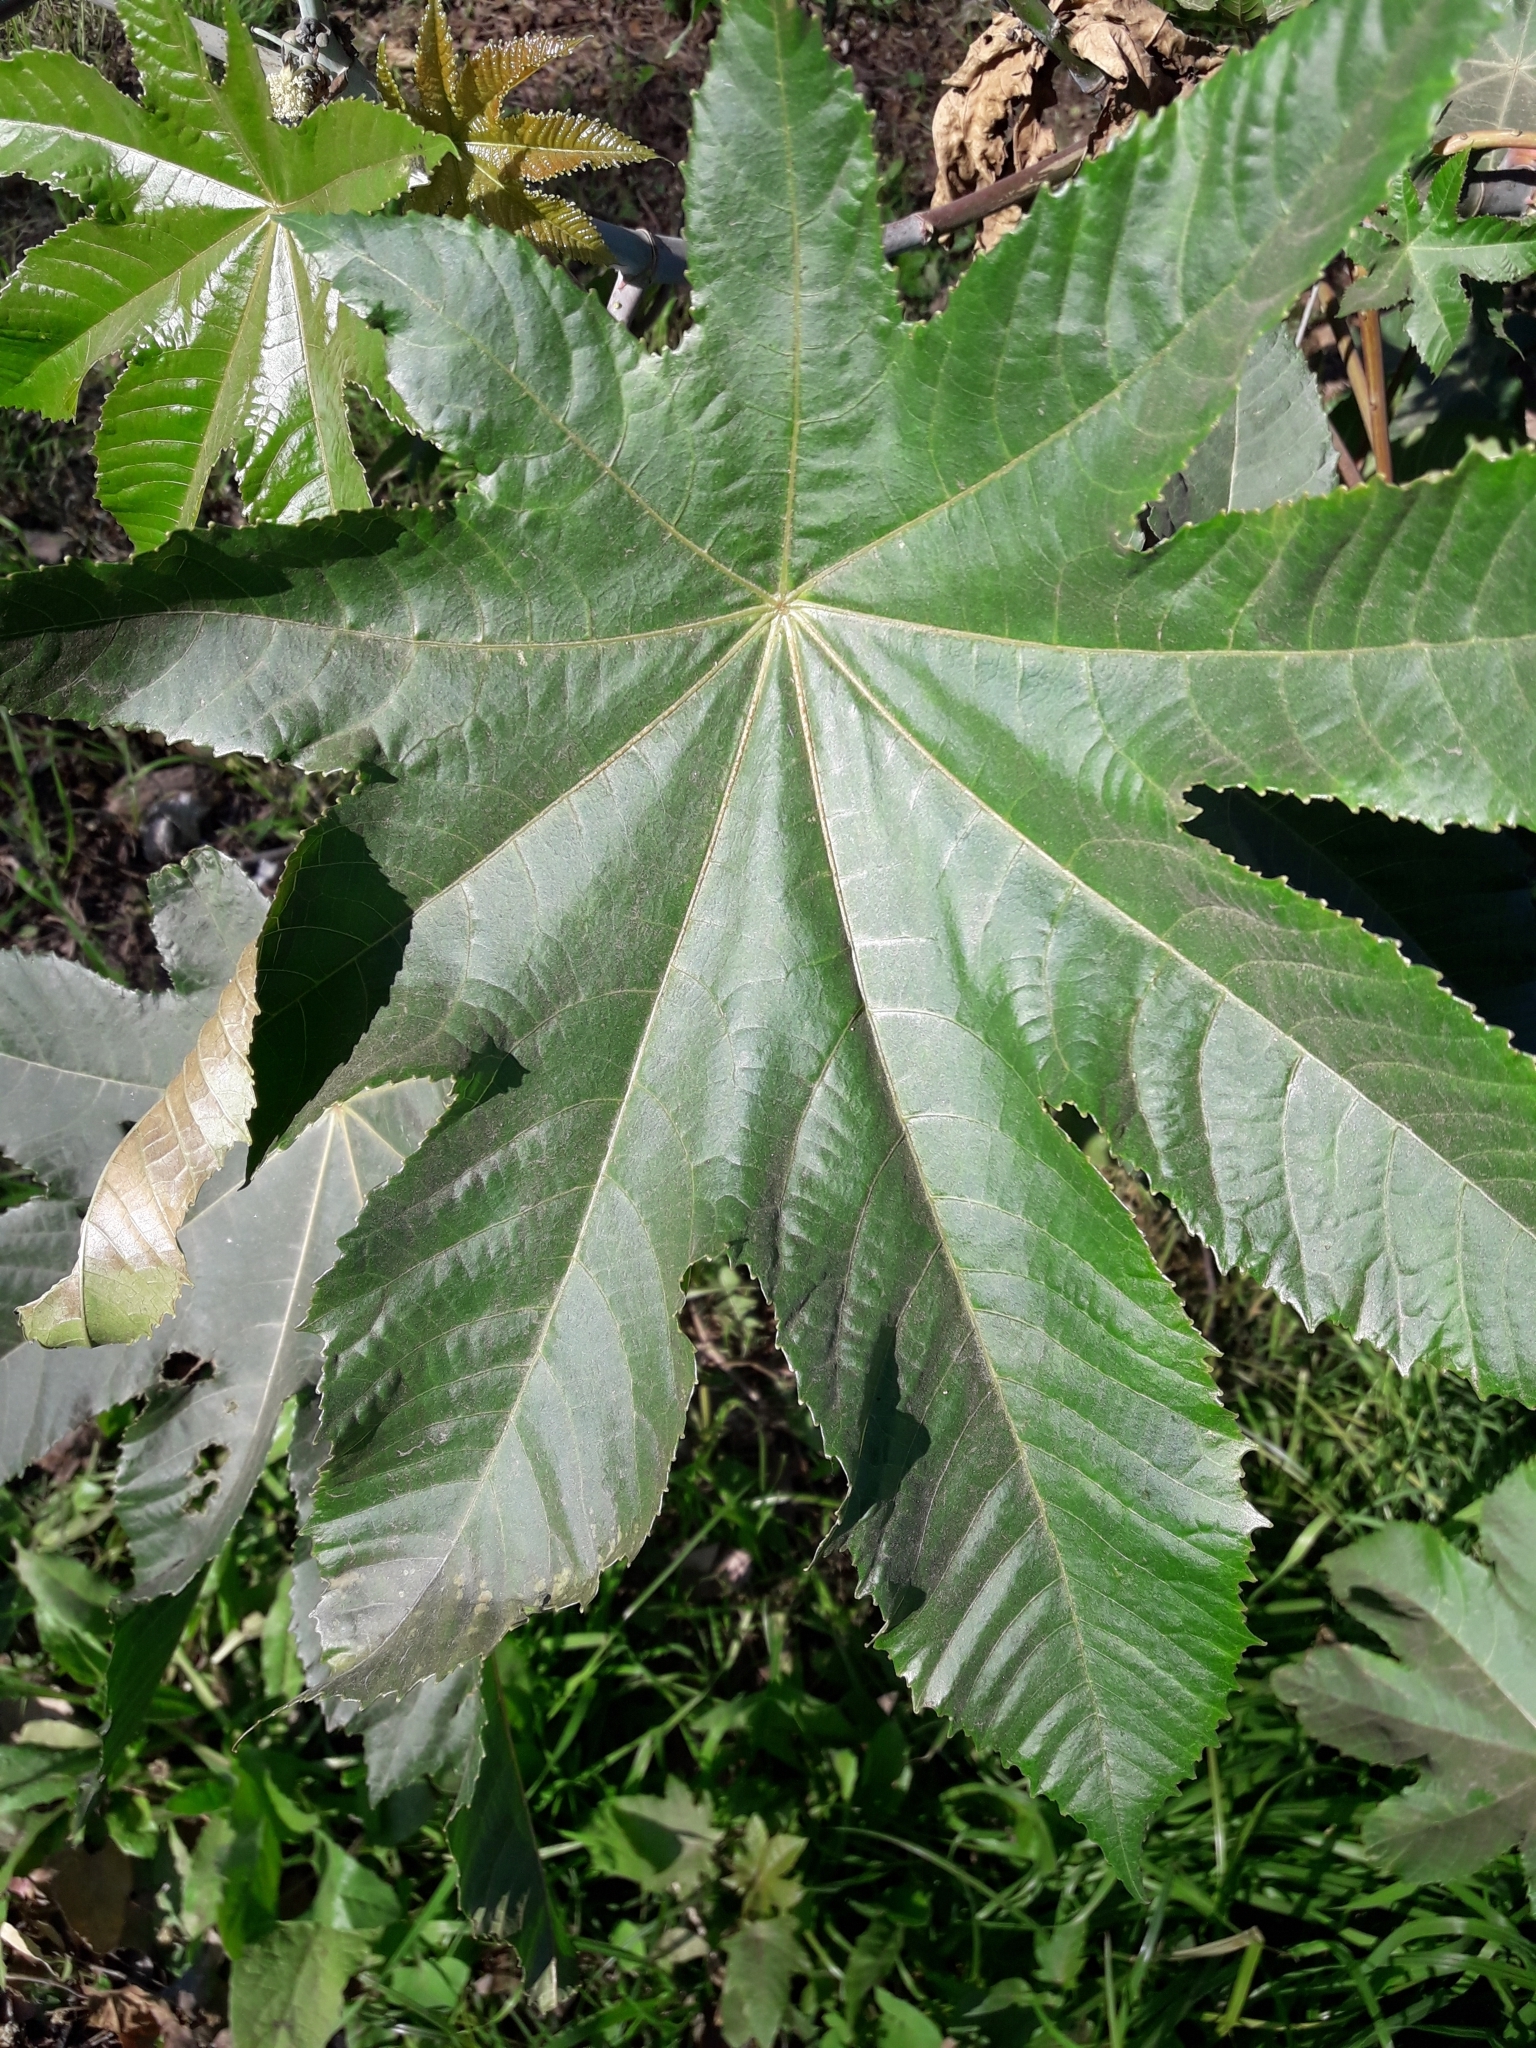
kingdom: Plantae
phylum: Tracheophyta
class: Magnoliopsida
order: Malpighiales
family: Euphorbiaceae
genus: Ricinus
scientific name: Ricinus communis
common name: Castor-oil-plant
